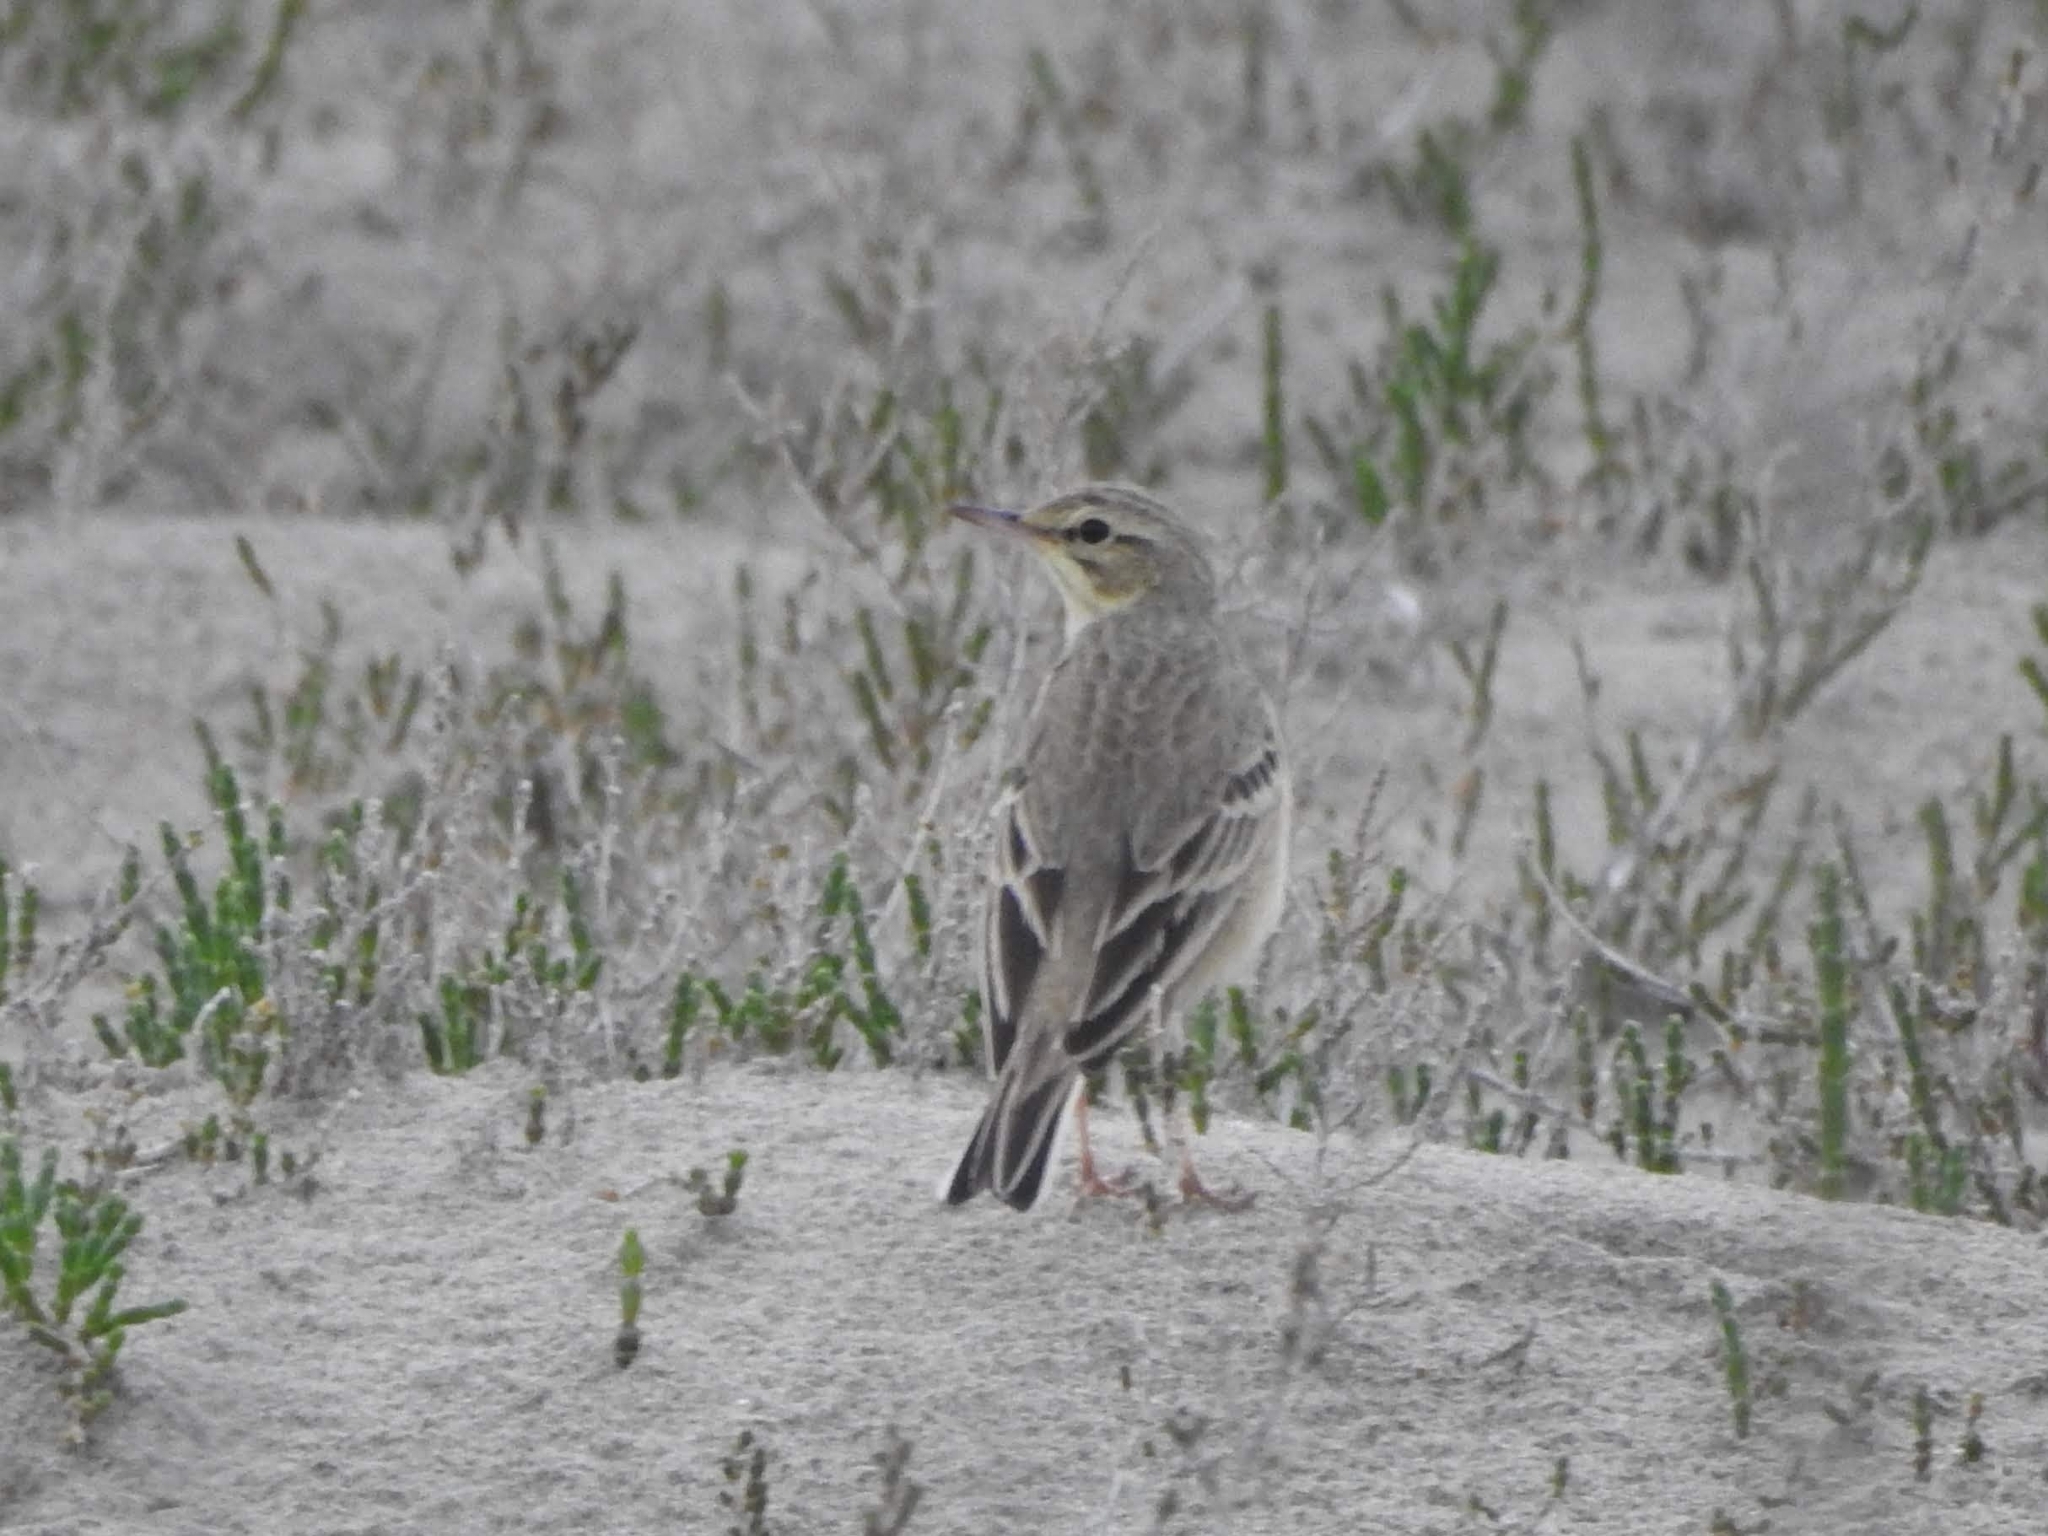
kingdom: Animalia
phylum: Chordata
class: Aves
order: Passeriformes
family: Motacillidae
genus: Anthus
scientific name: Anthus campestris
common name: Tawny pipit
